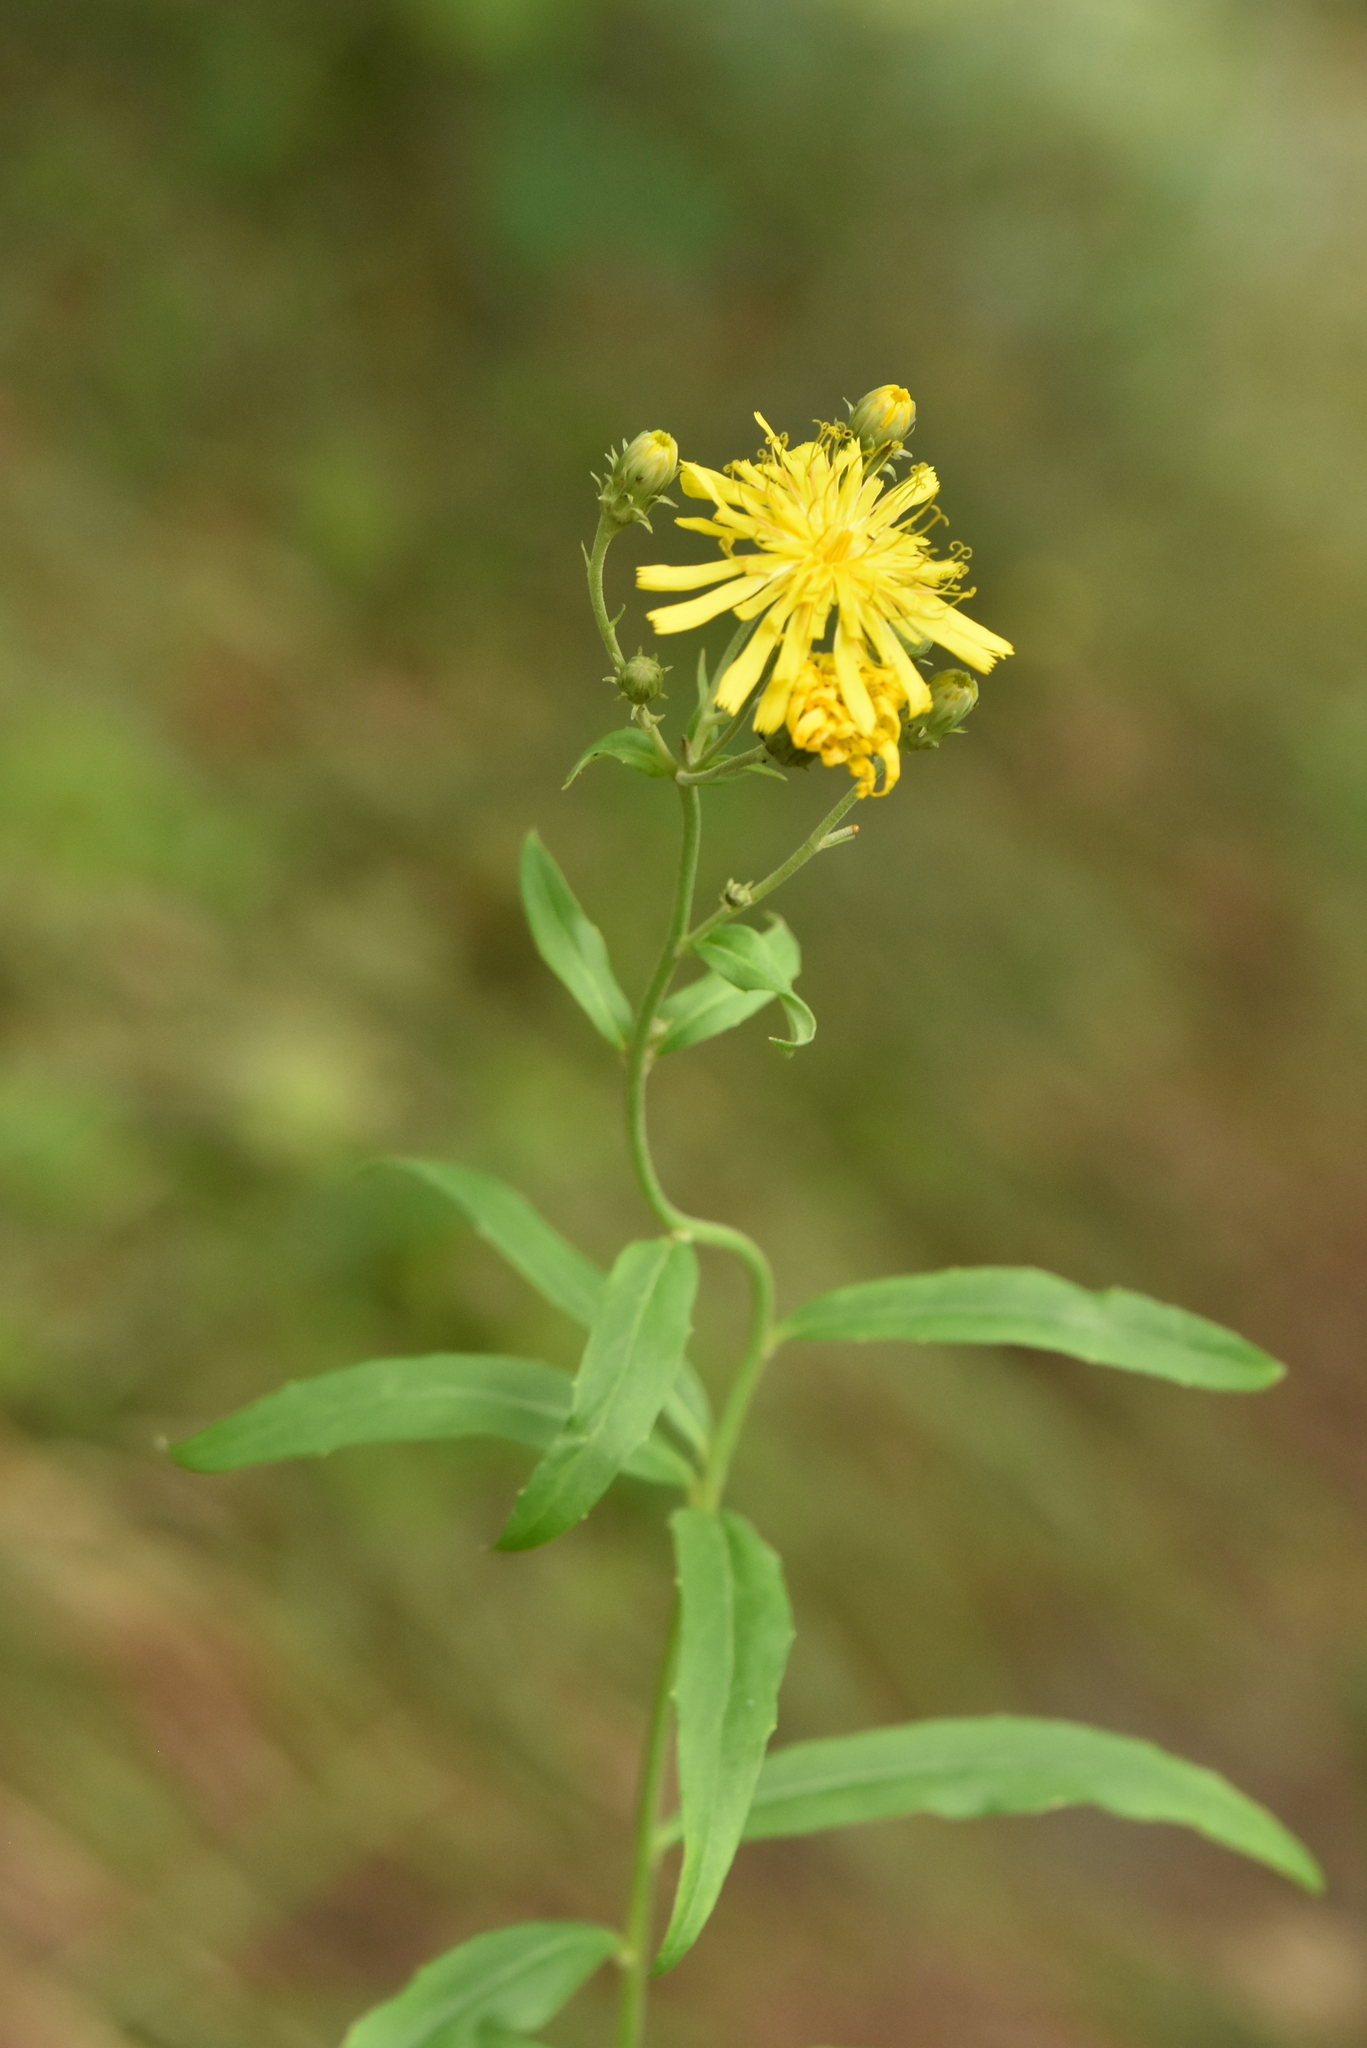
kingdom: Plantae
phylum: Tracheophyta
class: Magnoliopsida
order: Asterales
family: Asteraceae
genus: Hieracium
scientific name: Hieracium umbellatum
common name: Northern hawkweed
